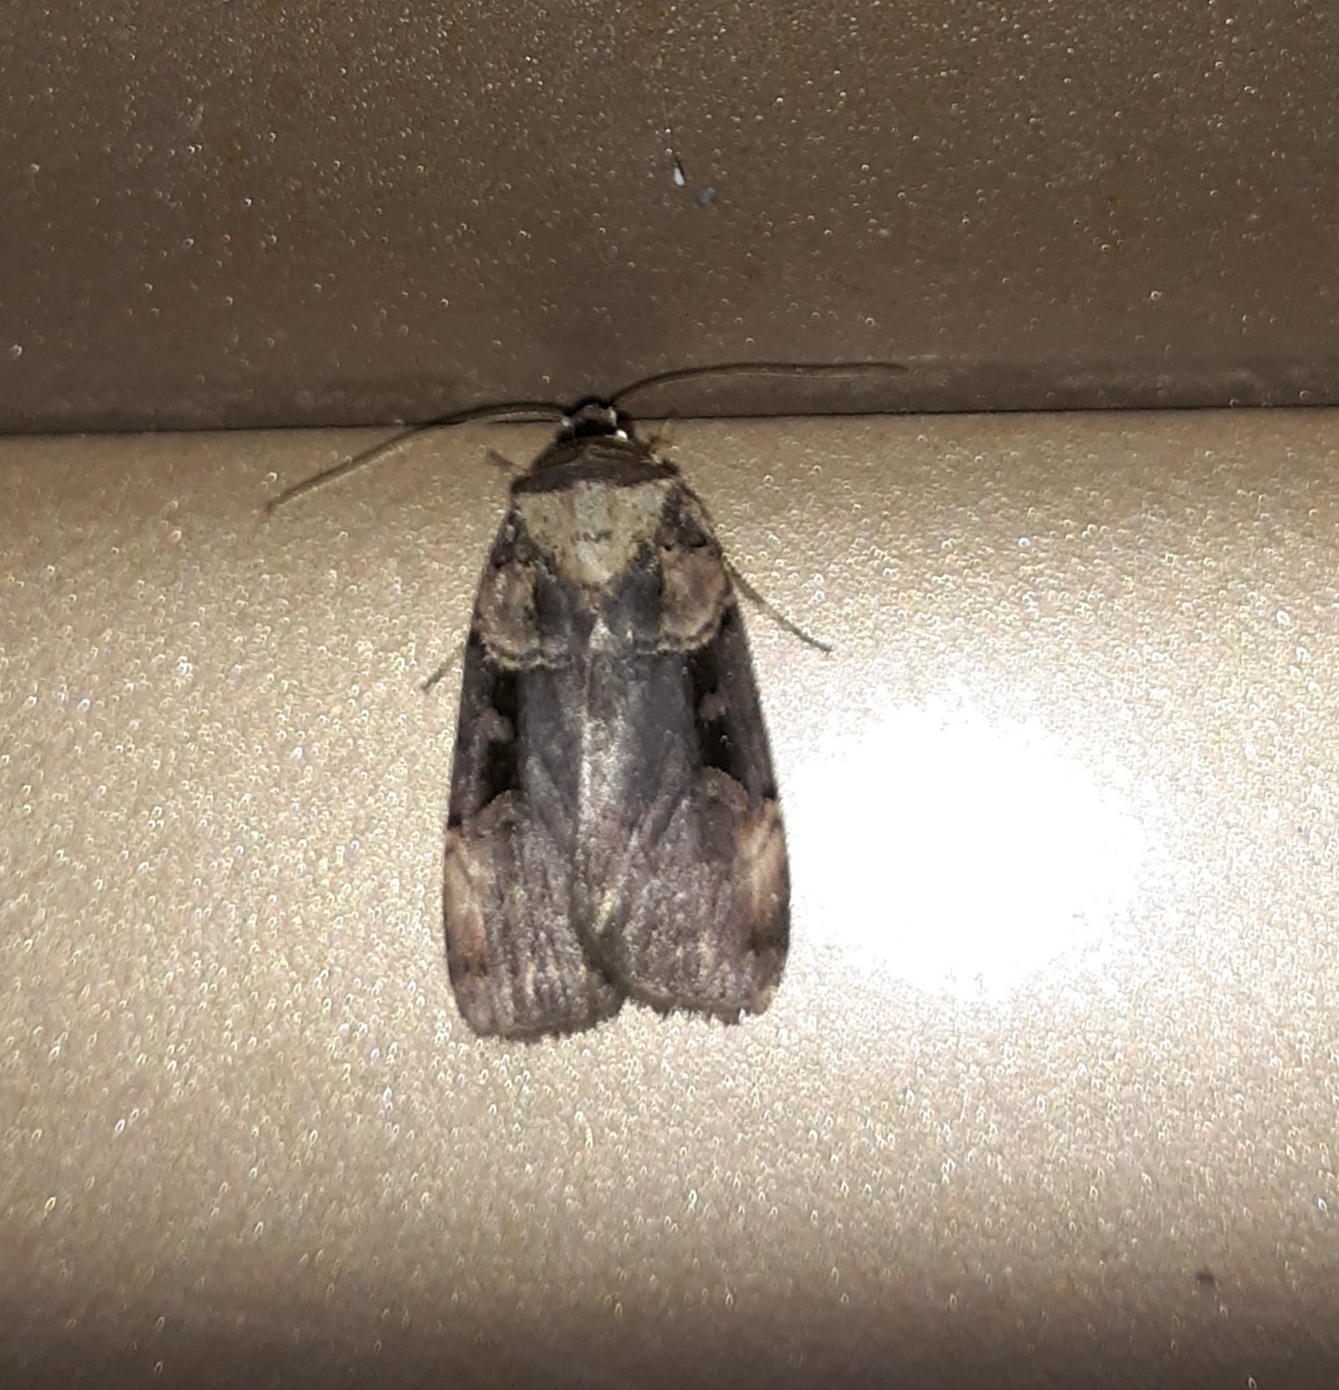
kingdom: Animalia
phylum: Arthropoda
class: Insecta
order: Lepidoptera
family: Noctuidae
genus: Pseudohermonassa
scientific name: Pseudohermonassa bicarnea
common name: Pink spotted dart
